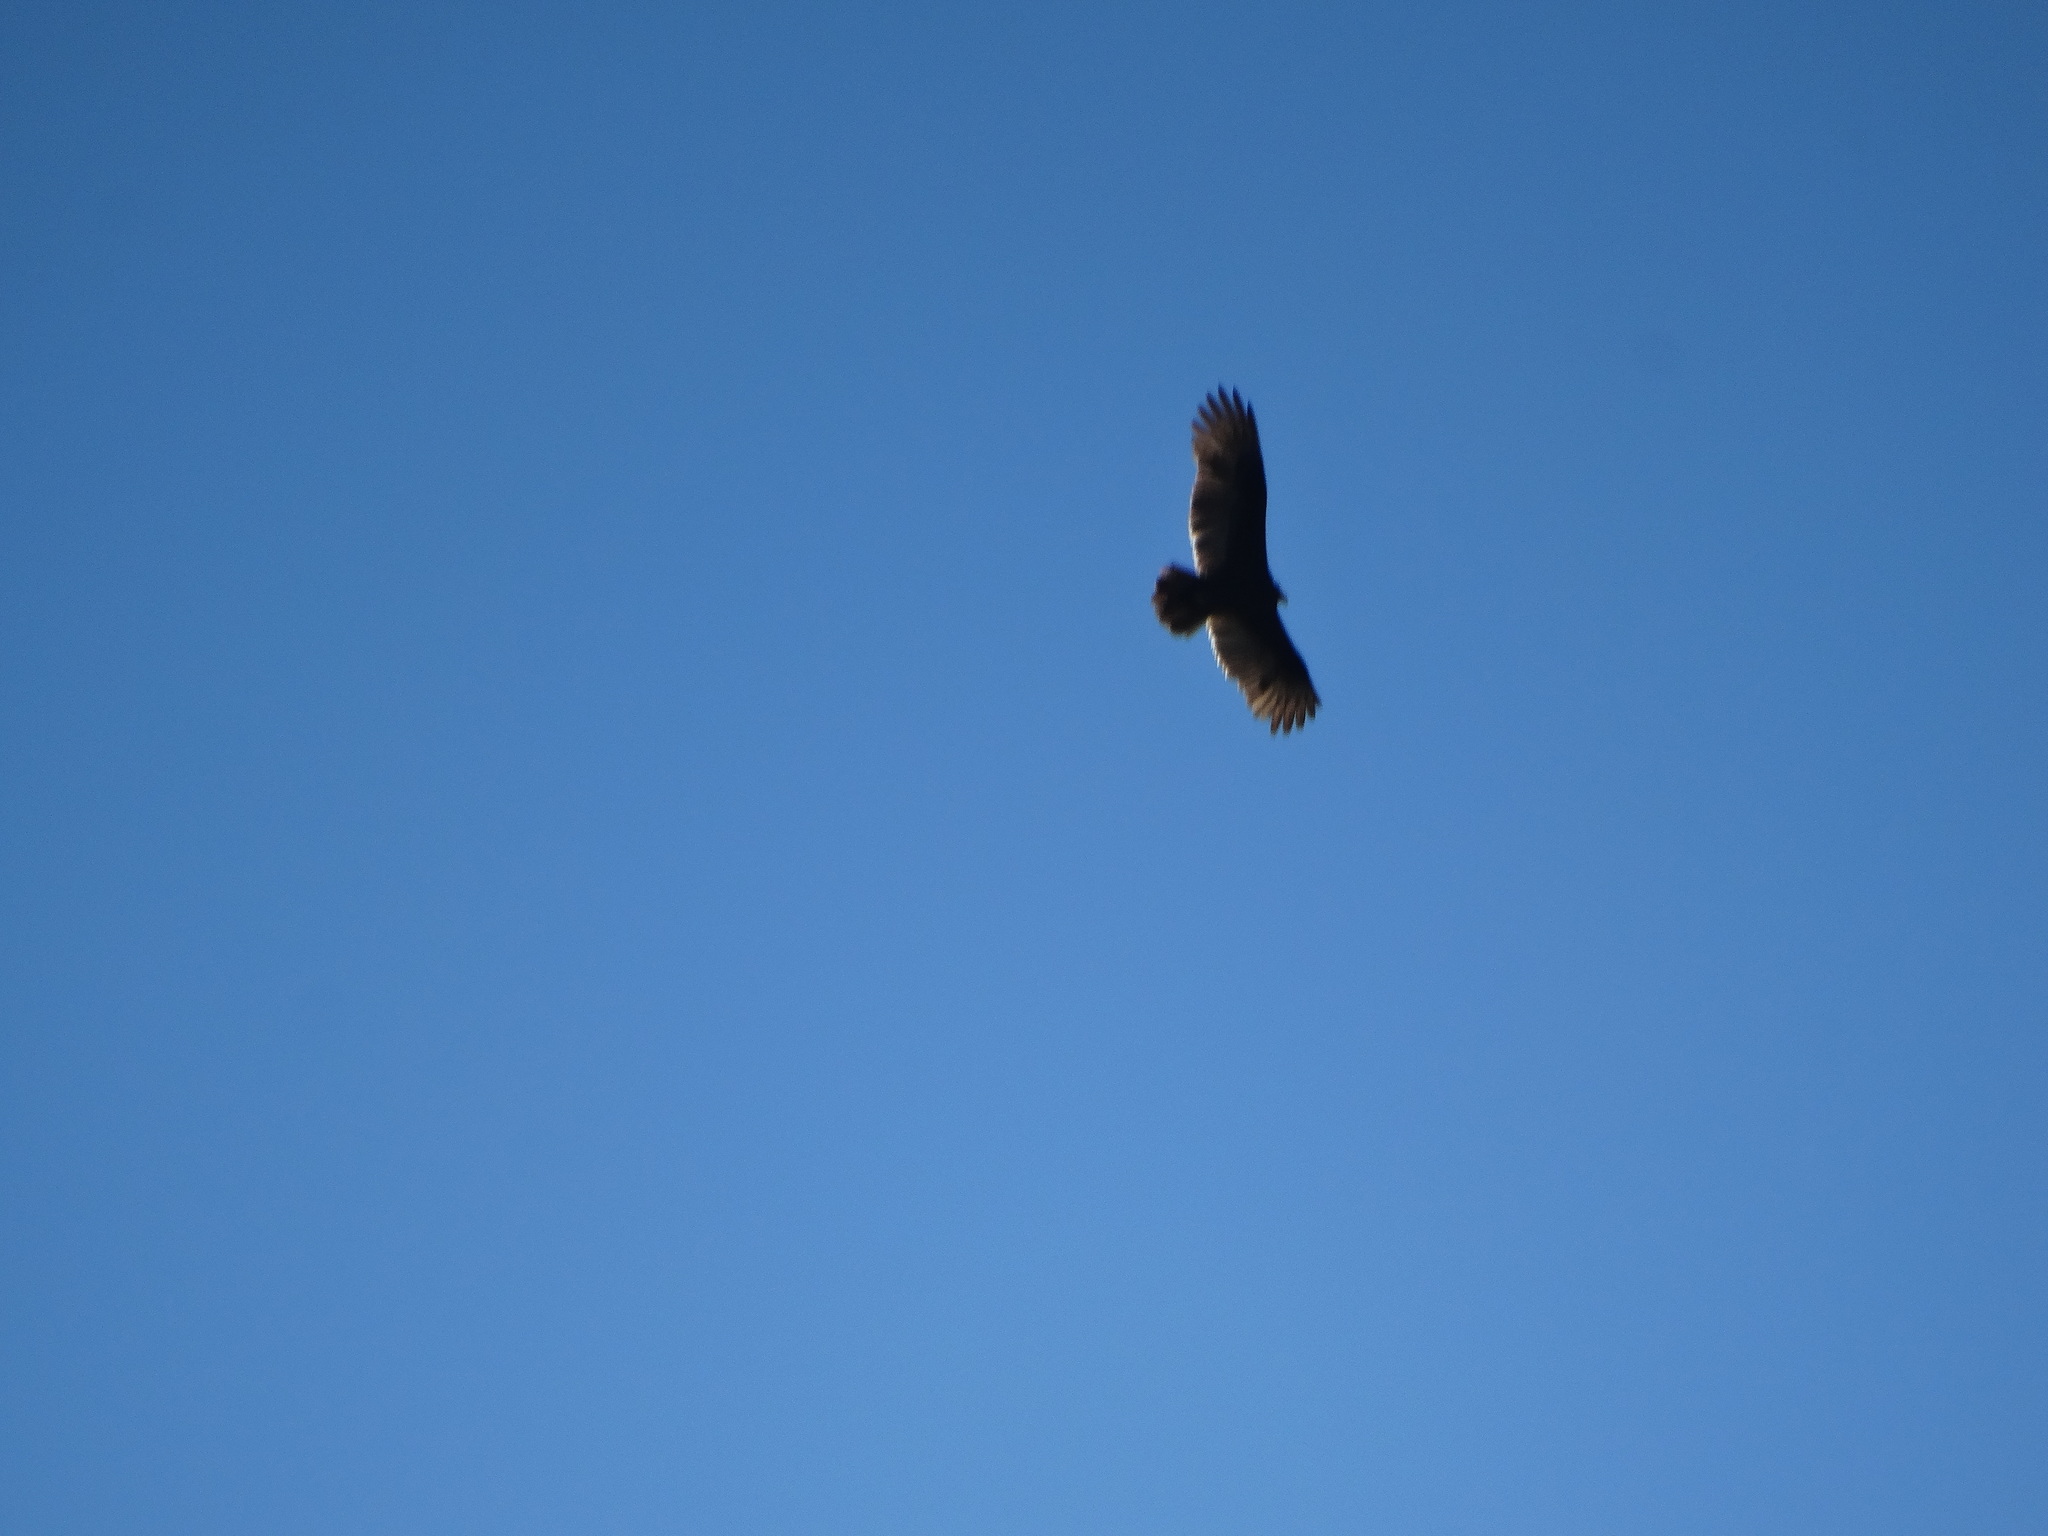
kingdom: Animalia
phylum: Chordata
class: Aves
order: Accipitriformes
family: Cathartidae
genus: Cathartes
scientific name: Cathartes aura
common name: Turkey vulture
